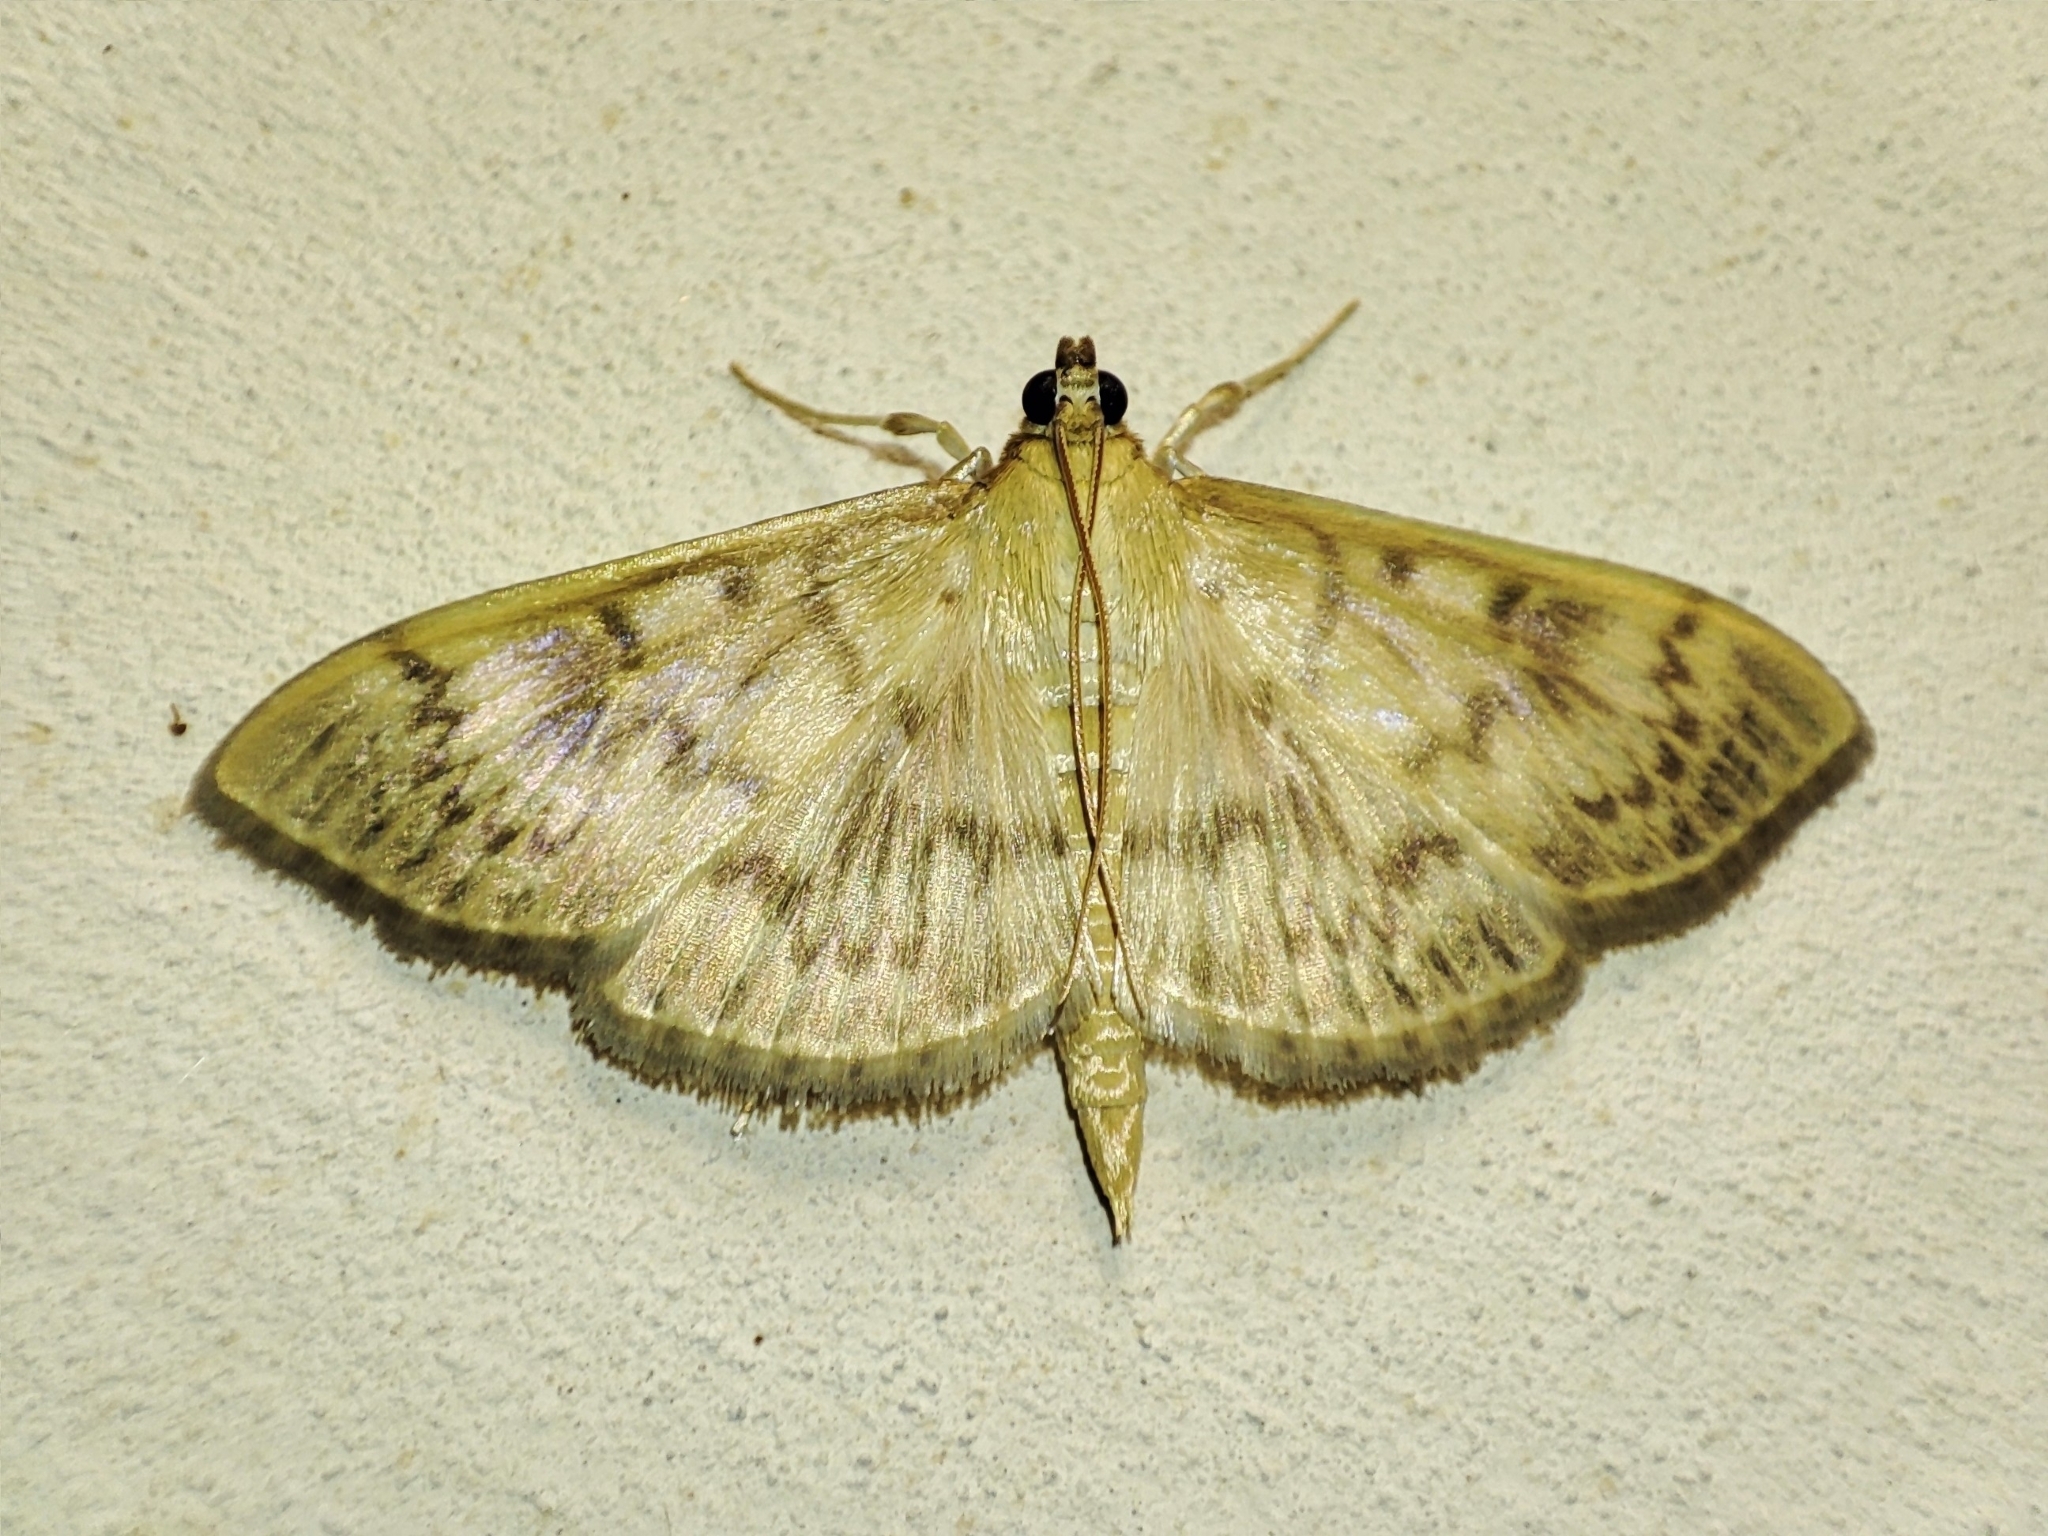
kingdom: Animalia
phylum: Arthropoda
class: Insecta
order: Lepidoptera
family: Crambidae
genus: Patania
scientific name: Patania ruralis
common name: Mother of pearl
